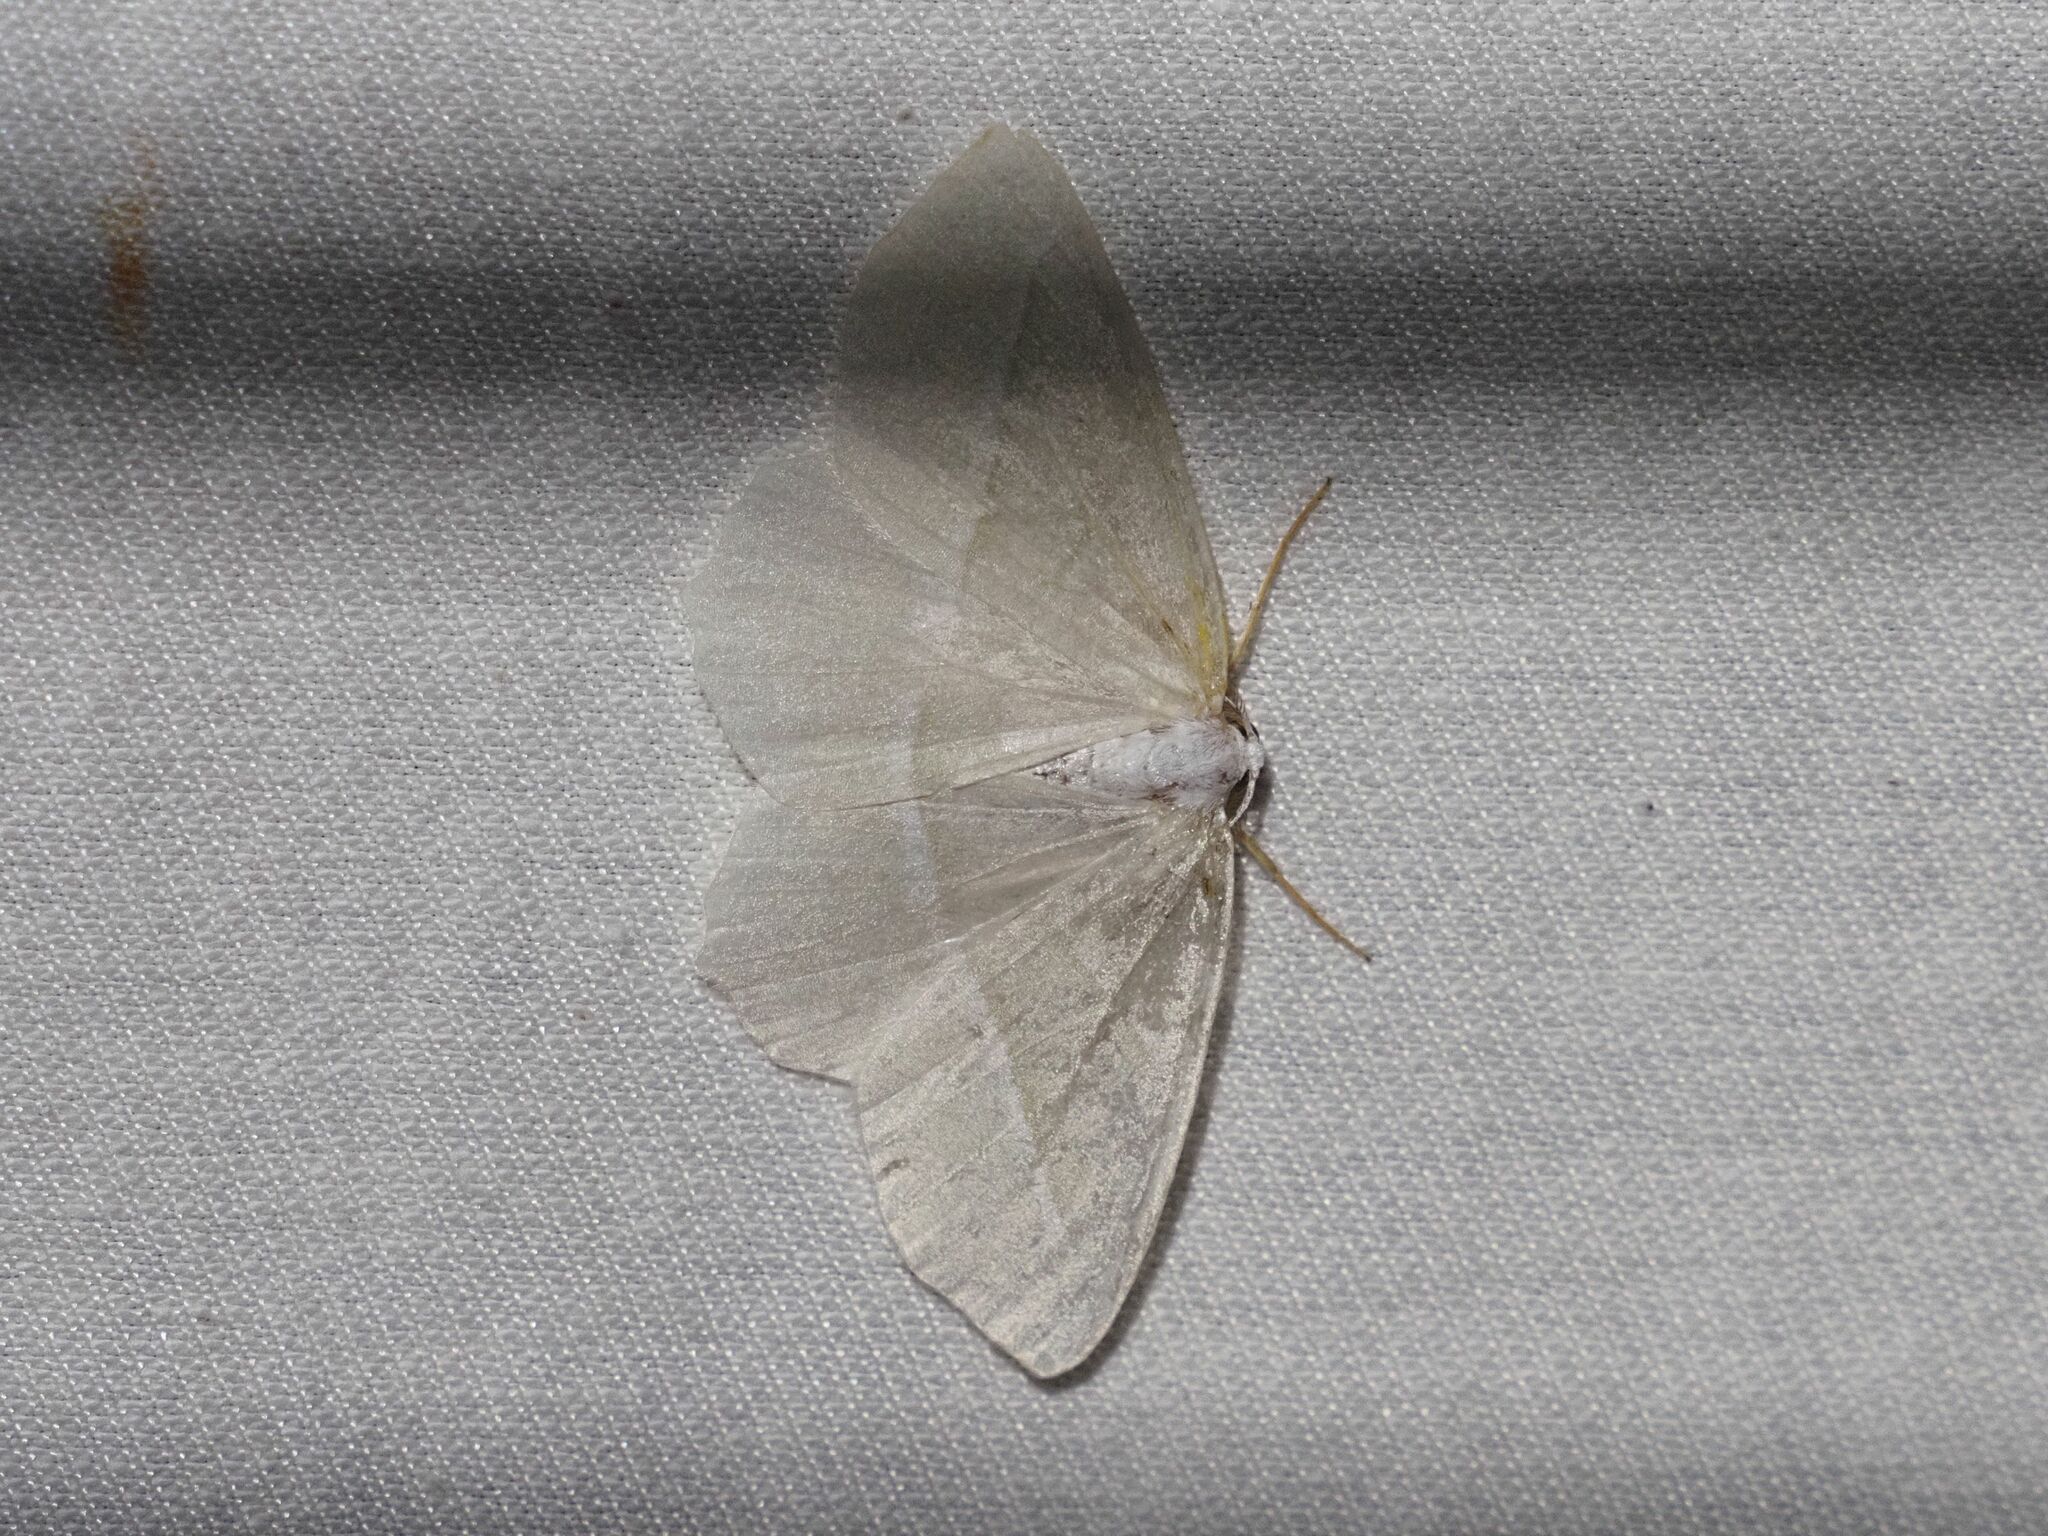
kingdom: Animalia
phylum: Arthropoda
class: Insecta
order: Lepidoptera
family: Geometridae
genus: Campaea
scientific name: Campaea margaritaria
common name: Light emerald
